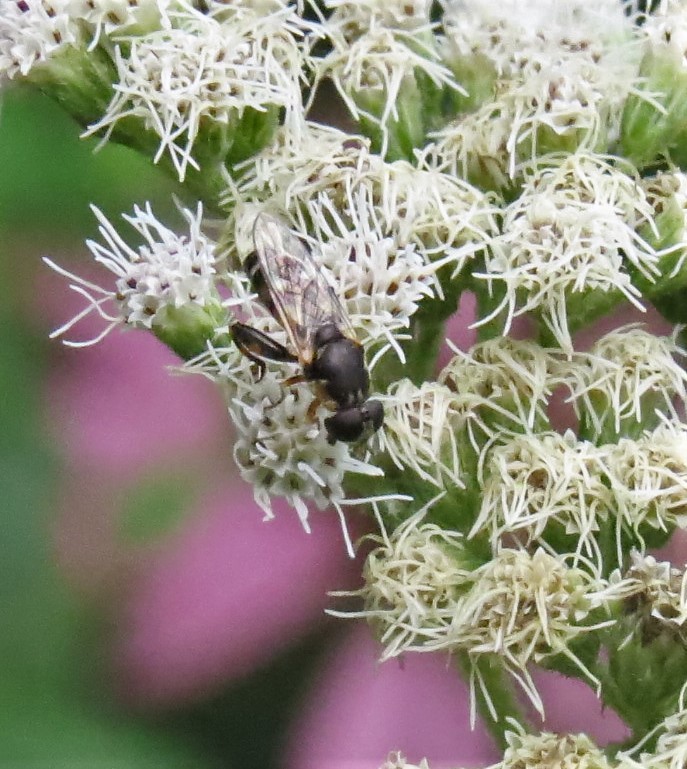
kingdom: Animalia
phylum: Arthropoda
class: Insecta
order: Diptera
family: Syrphidae
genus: Syritta
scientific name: Syritta pipiens
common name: Hover fly
